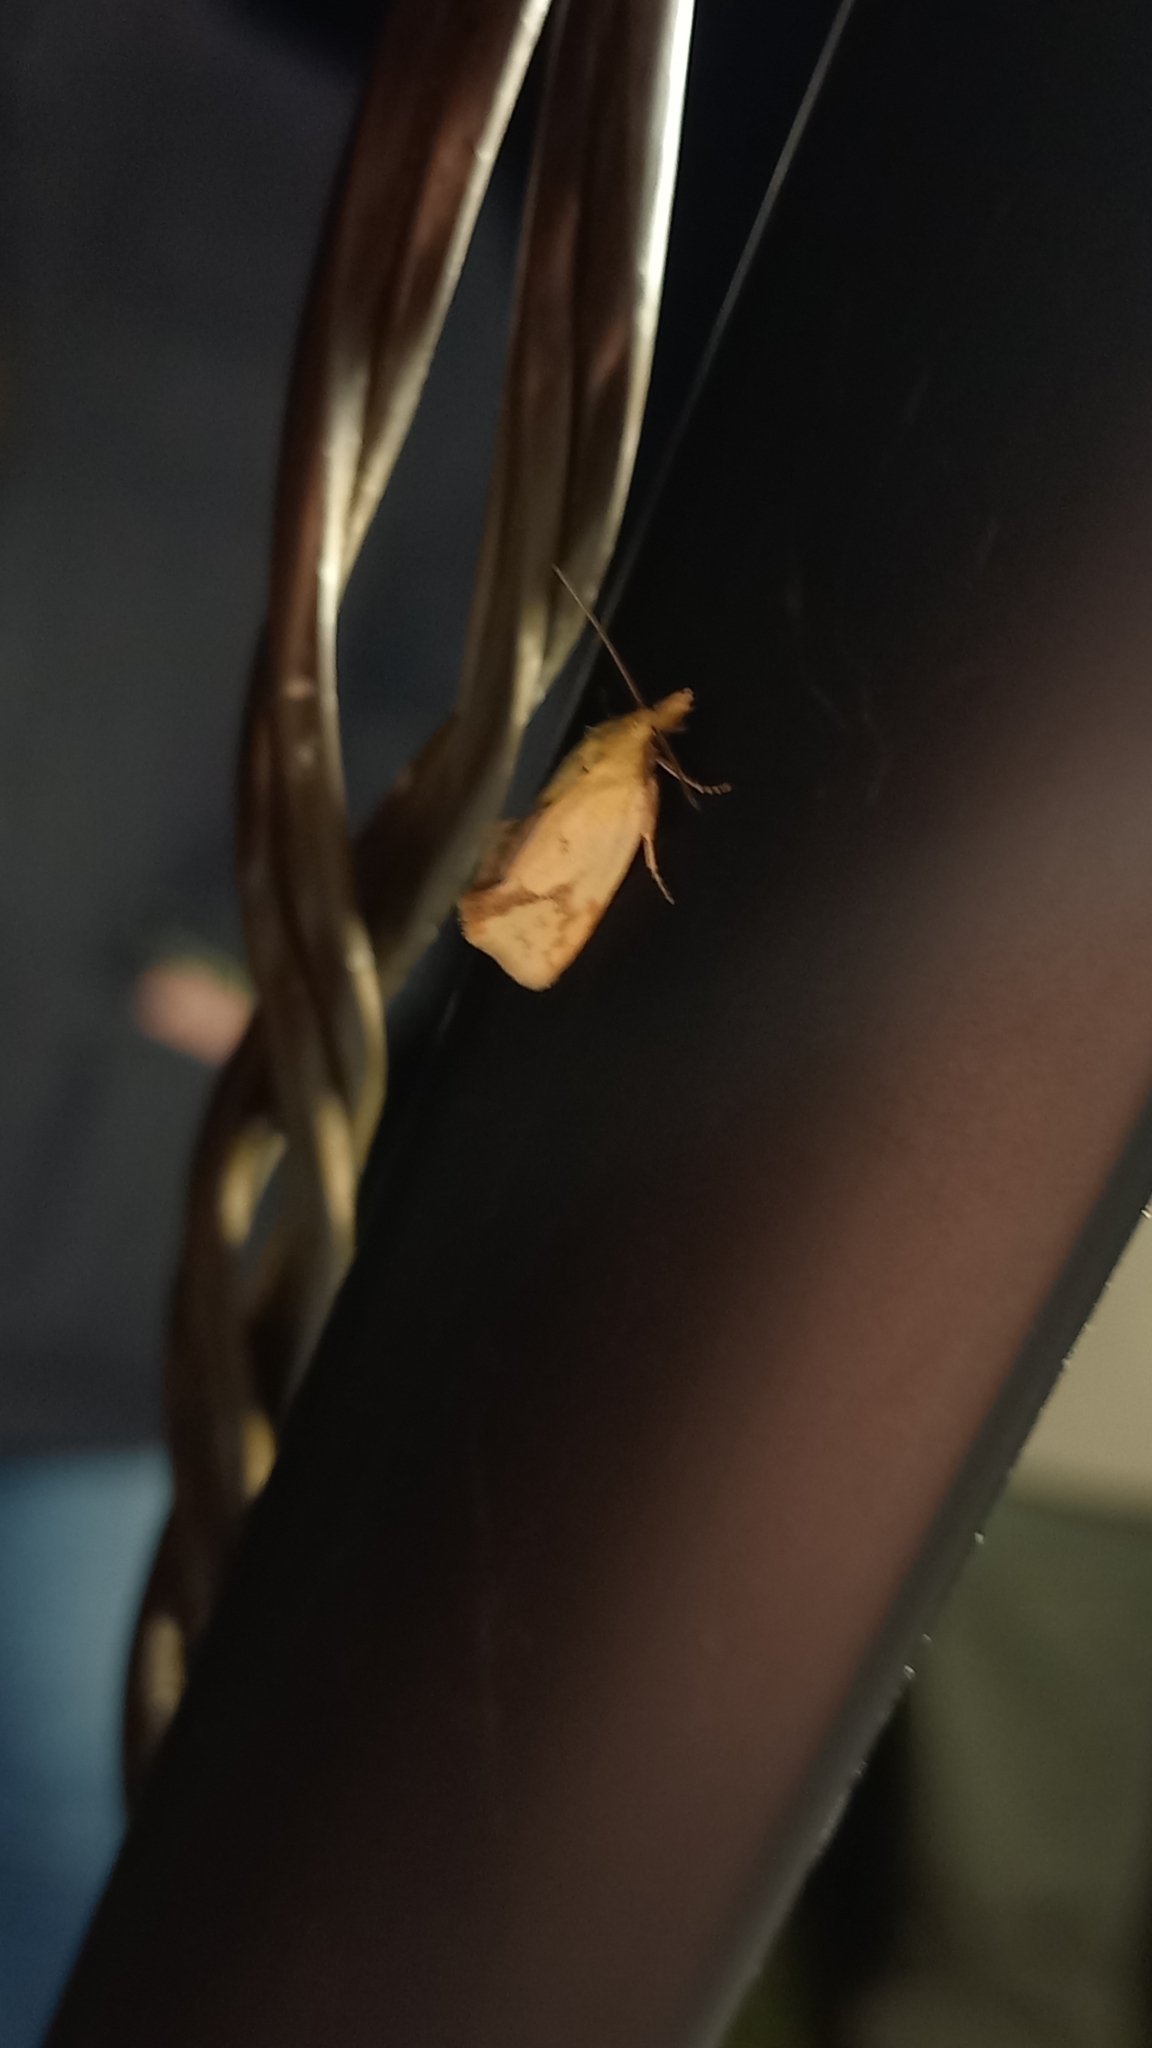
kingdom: Animalia
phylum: Arthropoda
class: Insecta
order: Lepidoptera
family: Tortricidae
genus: Agapeta
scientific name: Agapeta hamana
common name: Common yellow conch
